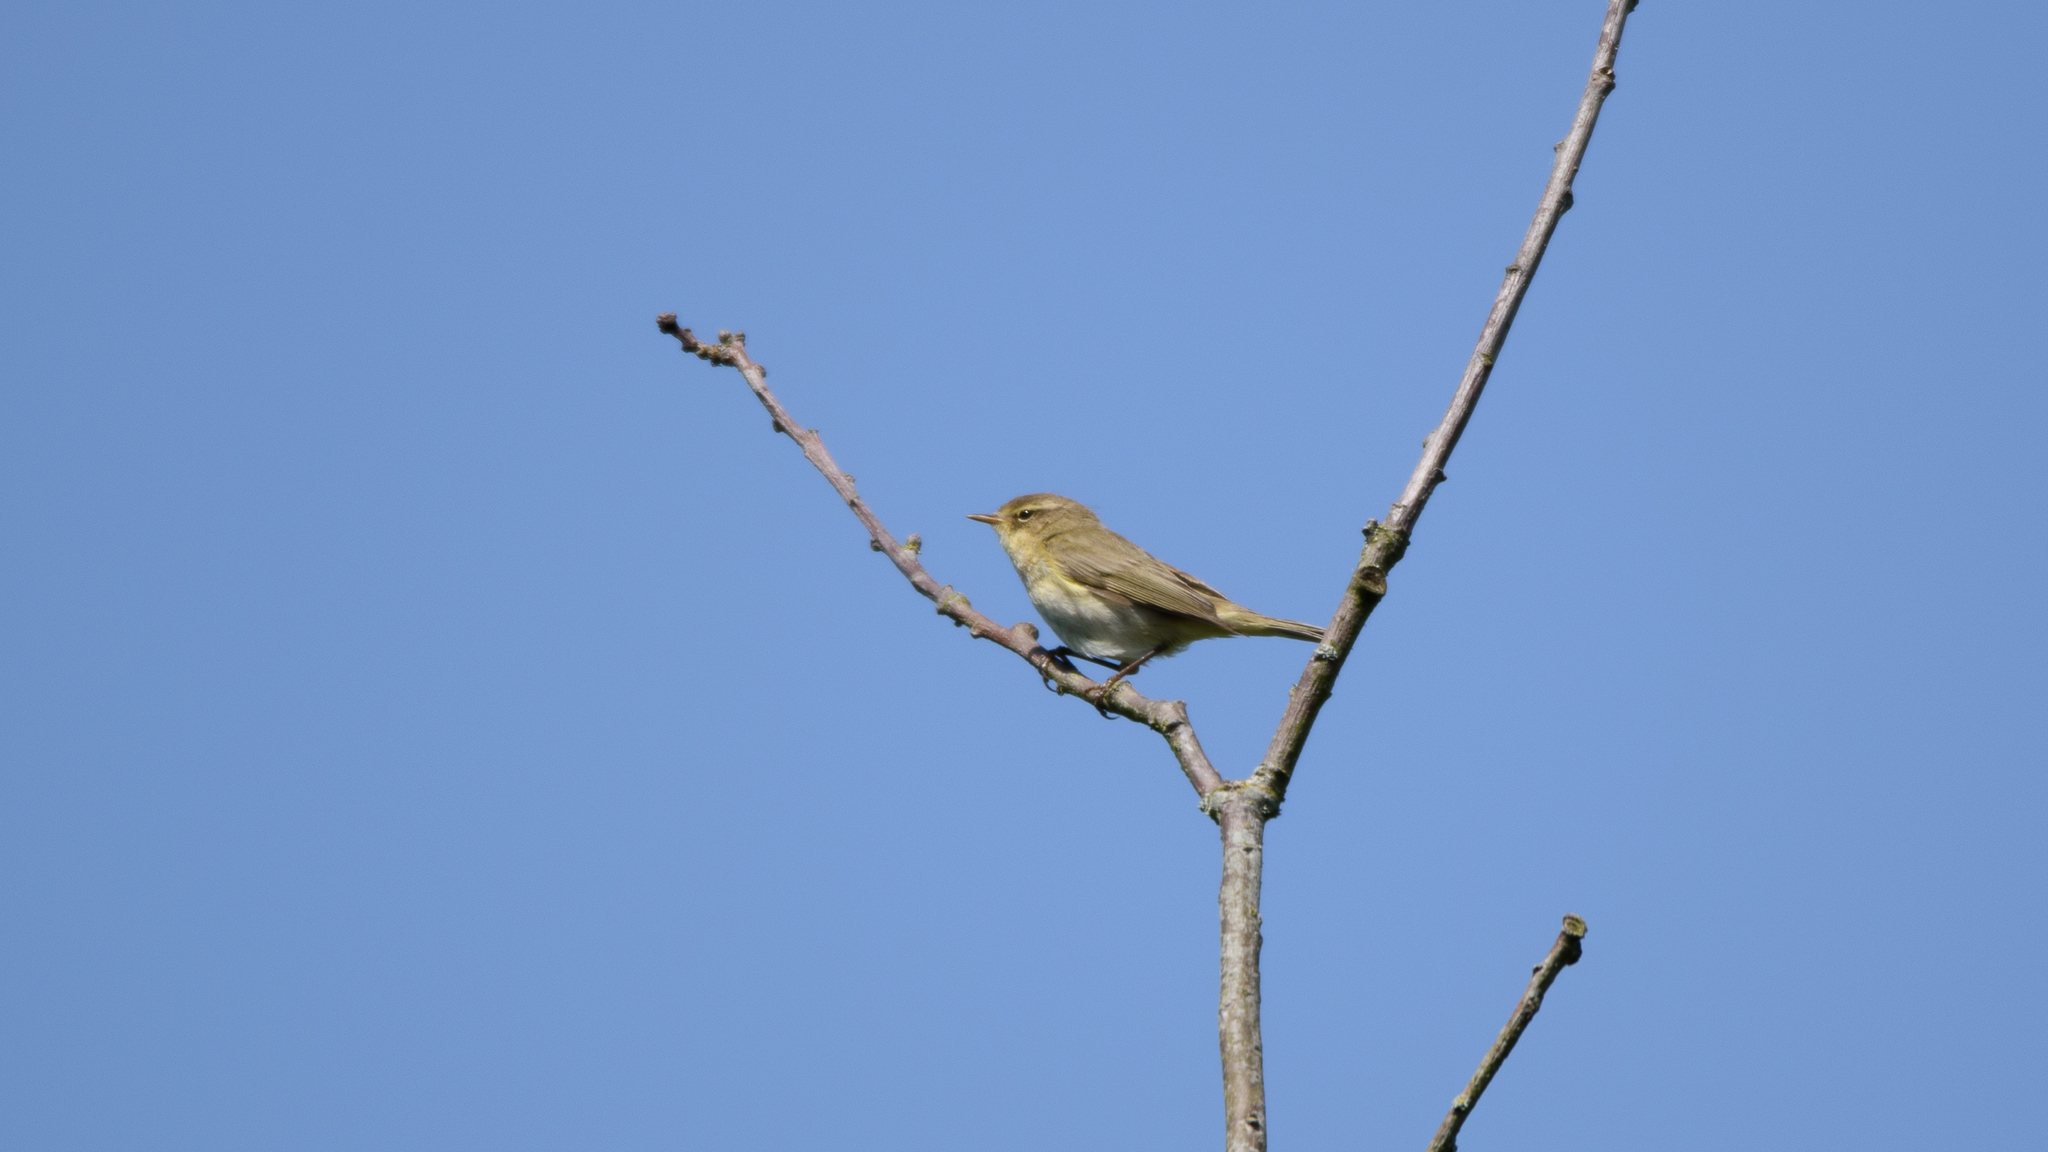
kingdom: Animalia
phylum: Chordata
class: Aves
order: Passeriformes
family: Phylloscopidae
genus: Phylloscopus
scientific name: Phylloscopus collybita
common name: Common chiffchaff
